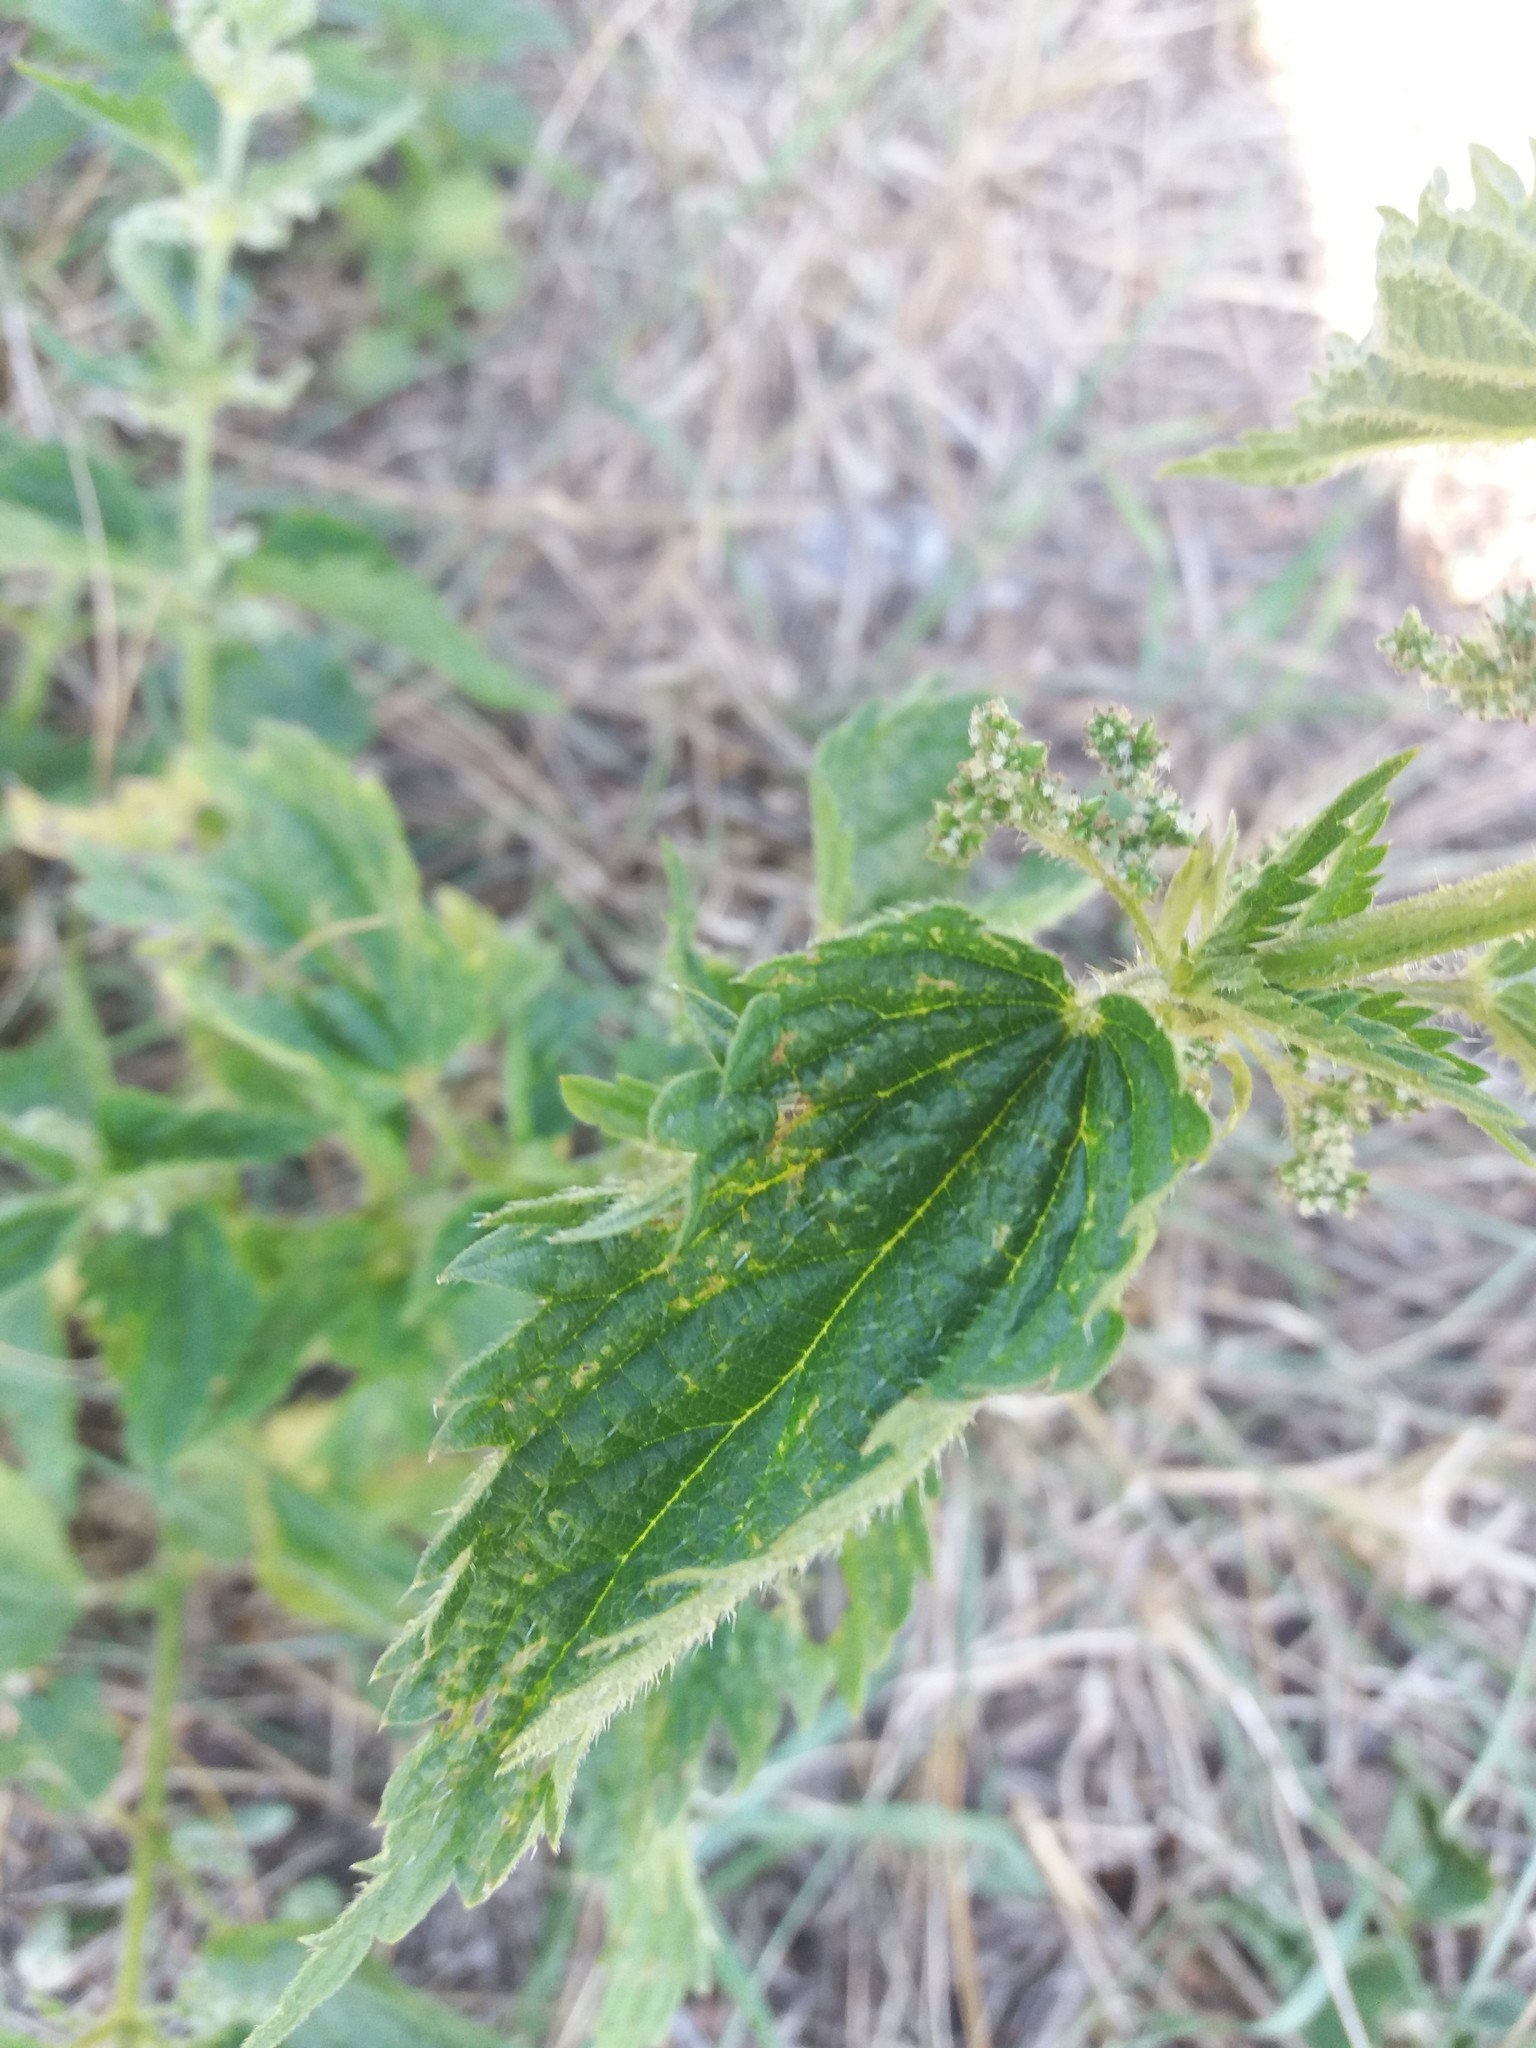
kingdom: Plantae
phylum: Tracheophyta
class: Magnoliopsida
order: Rosales
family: Urticaceae
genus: Urtica
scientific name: Urtica dioica
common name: Common nettle
